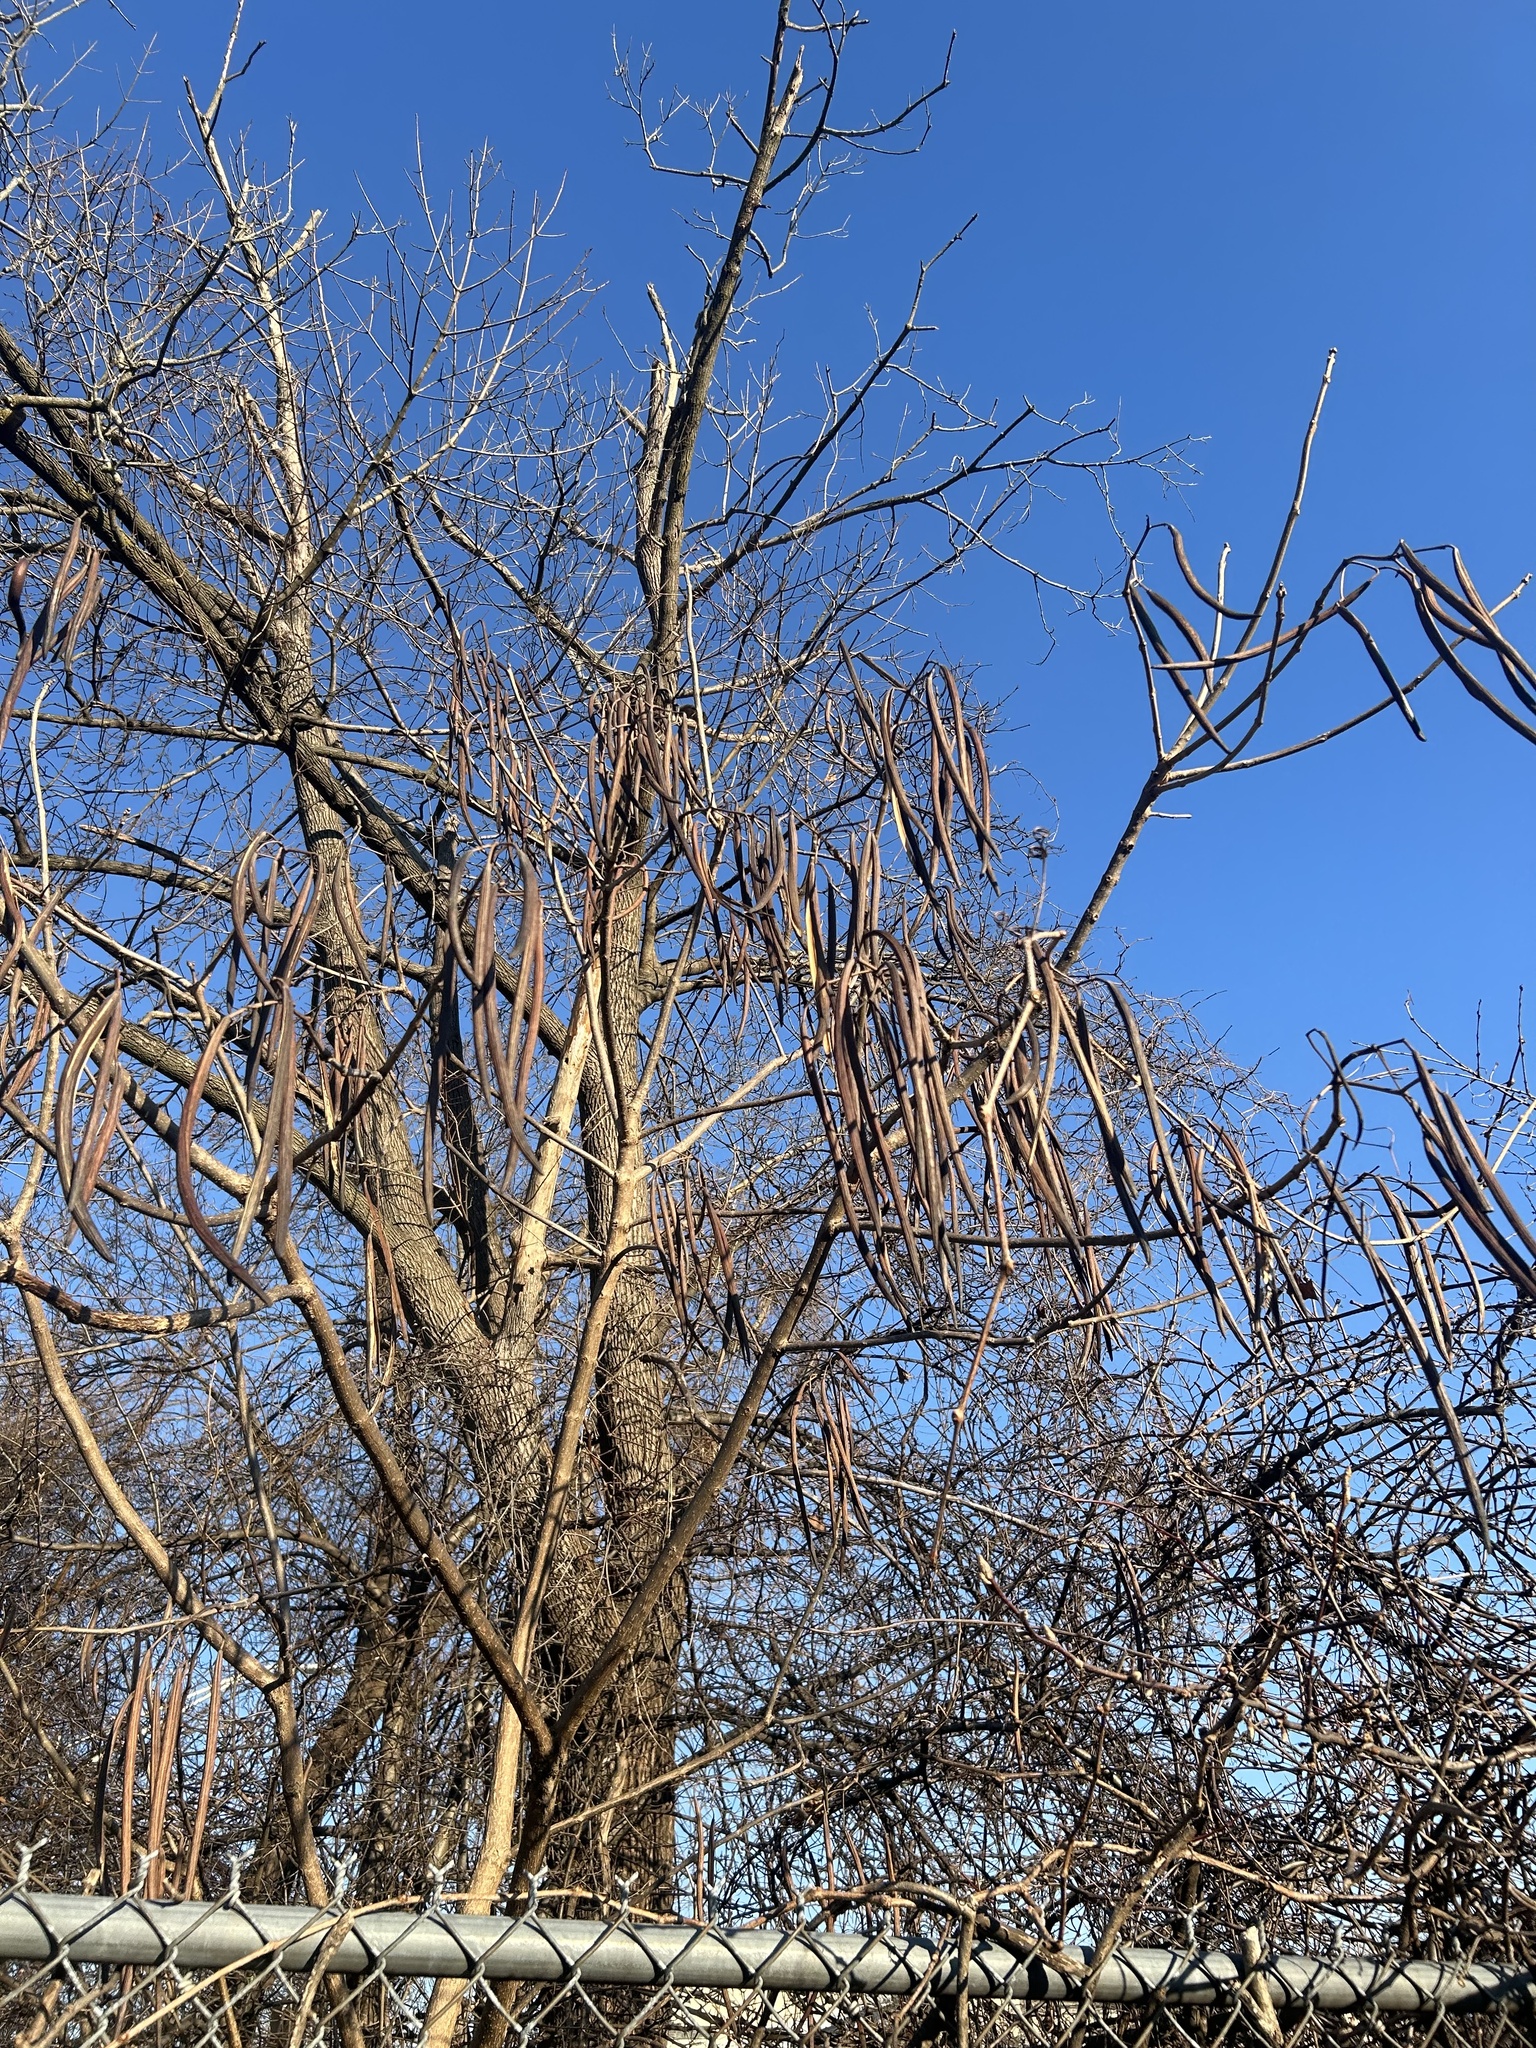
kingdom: Plantae
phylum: Tracheophyta
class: Magnoliopsida
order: Lamiales
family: Bignoniaceae
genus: Catalpa
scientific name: Catalpa speciosa
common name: Northern catalpa
